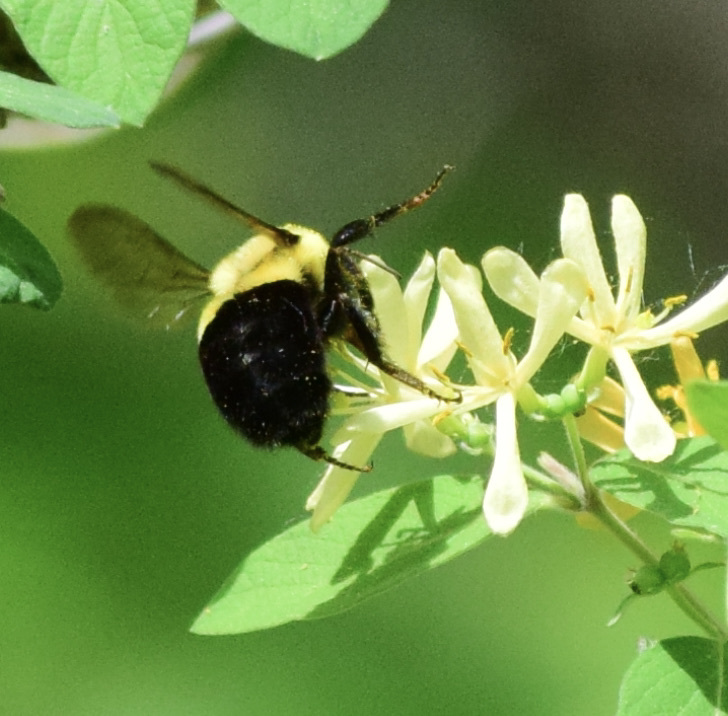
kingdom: Animalia
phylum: Arthropoda
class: Insecta
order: Hymenoptera
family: Apidae
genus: Bombus
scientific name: Bombus impatiens
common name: Common eastern bumble bee
